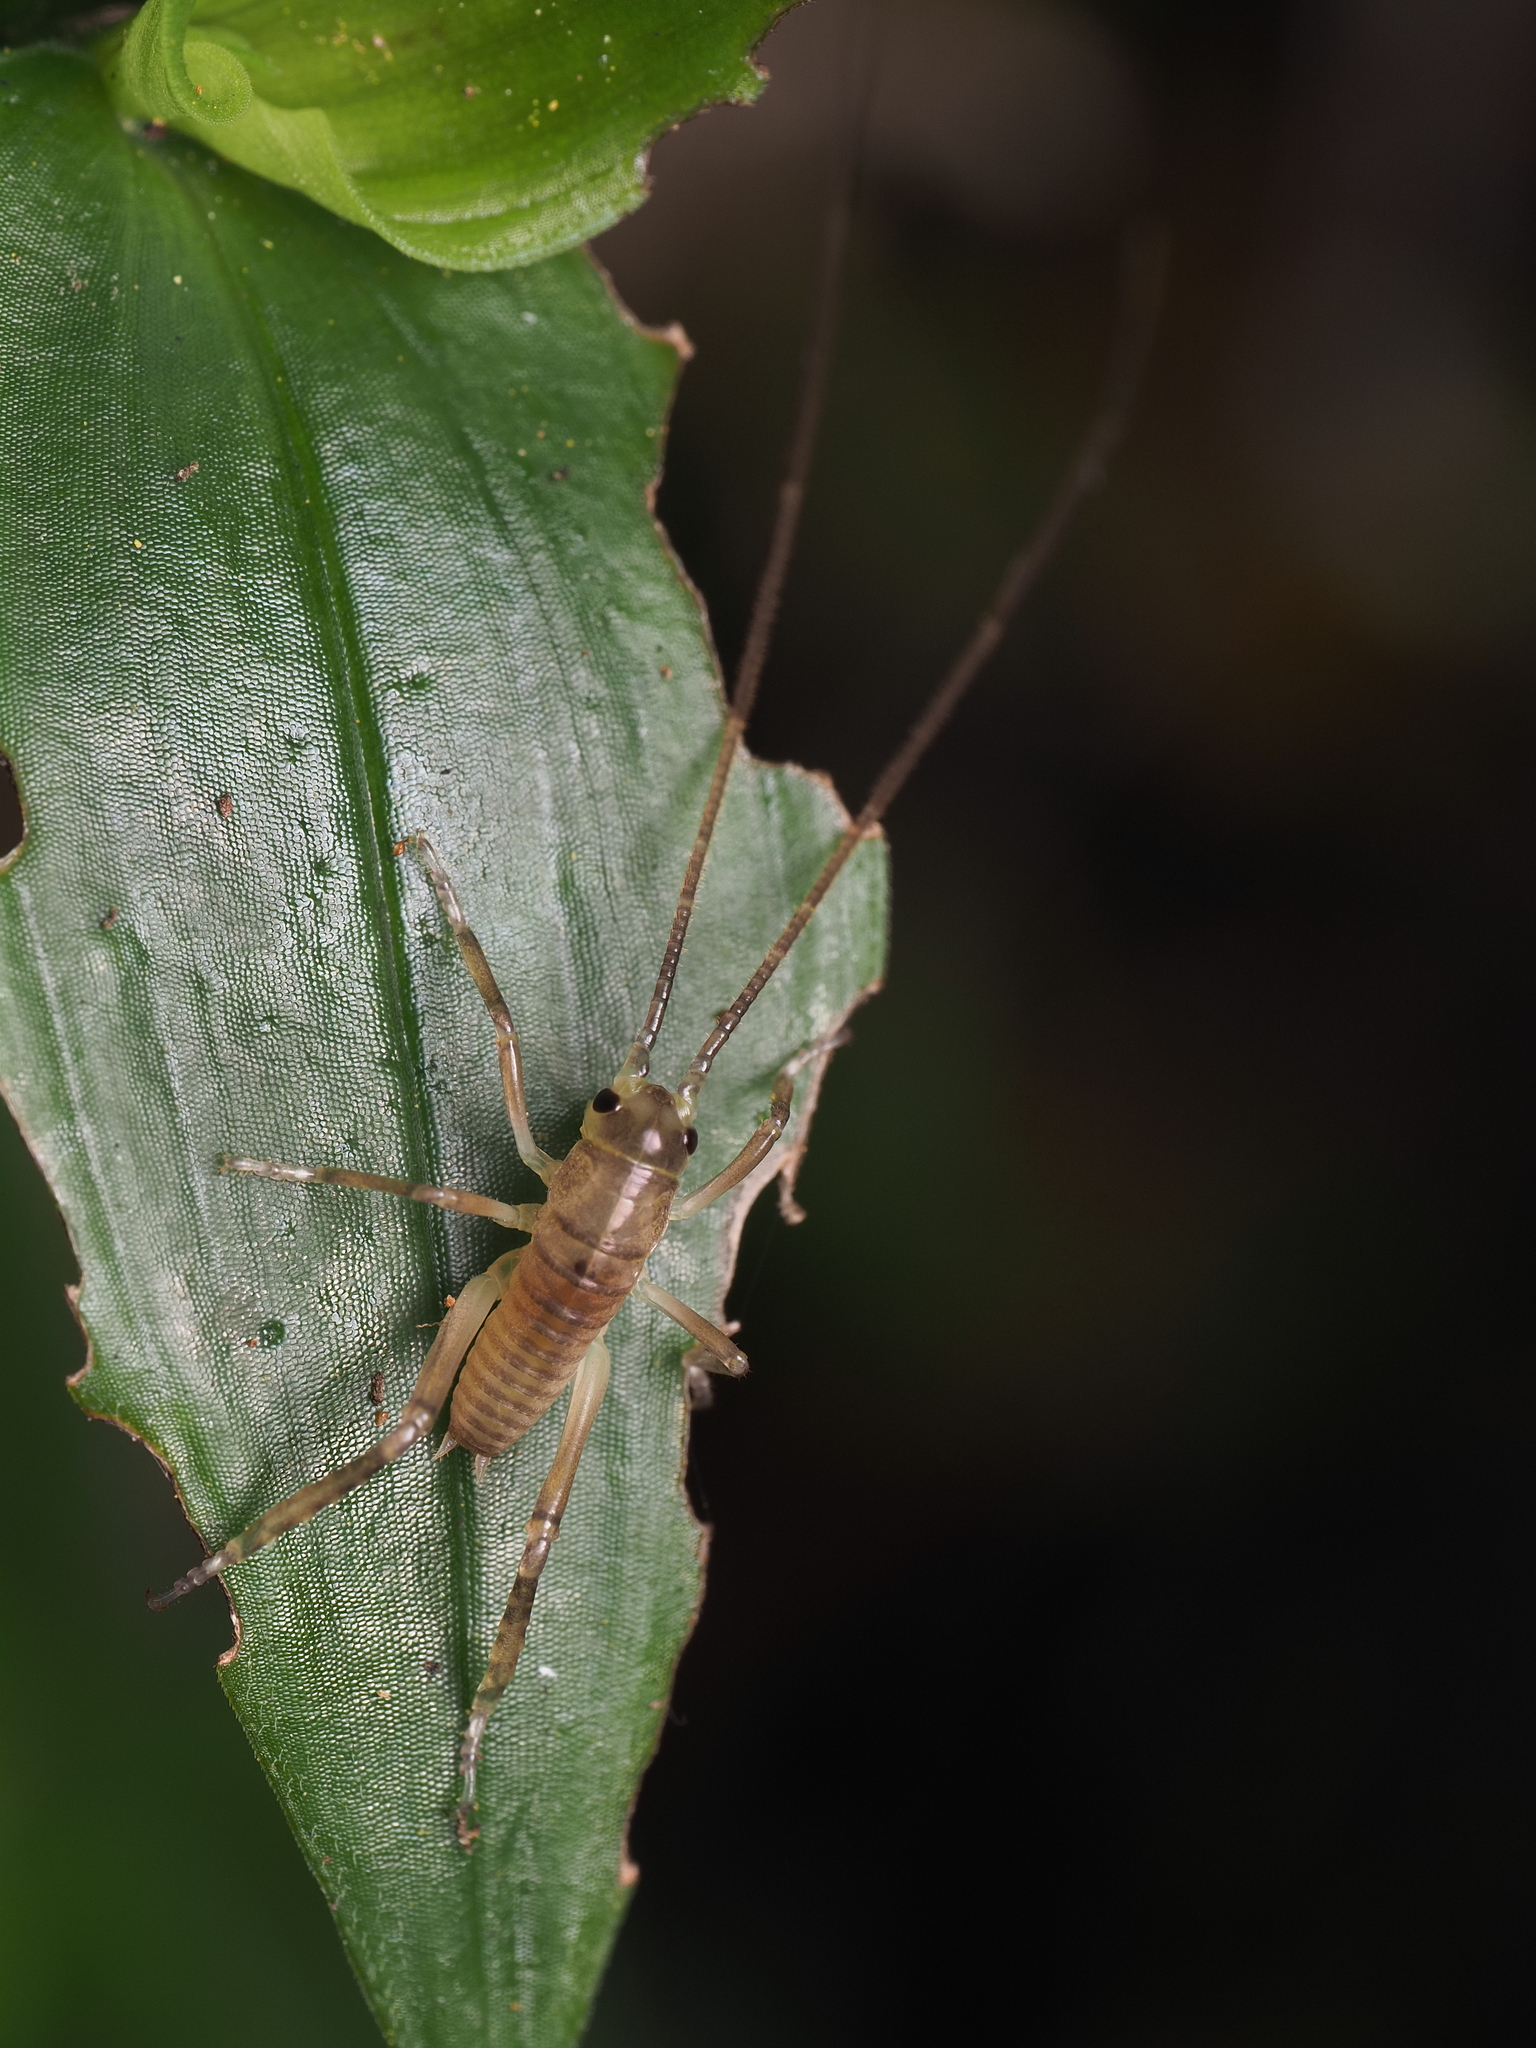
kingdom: Animalia
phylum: Arthropoda
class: Insecta
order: Orthoptera
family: Anostostomatidae
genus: Hemideina
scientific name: Hemideina thoracica
